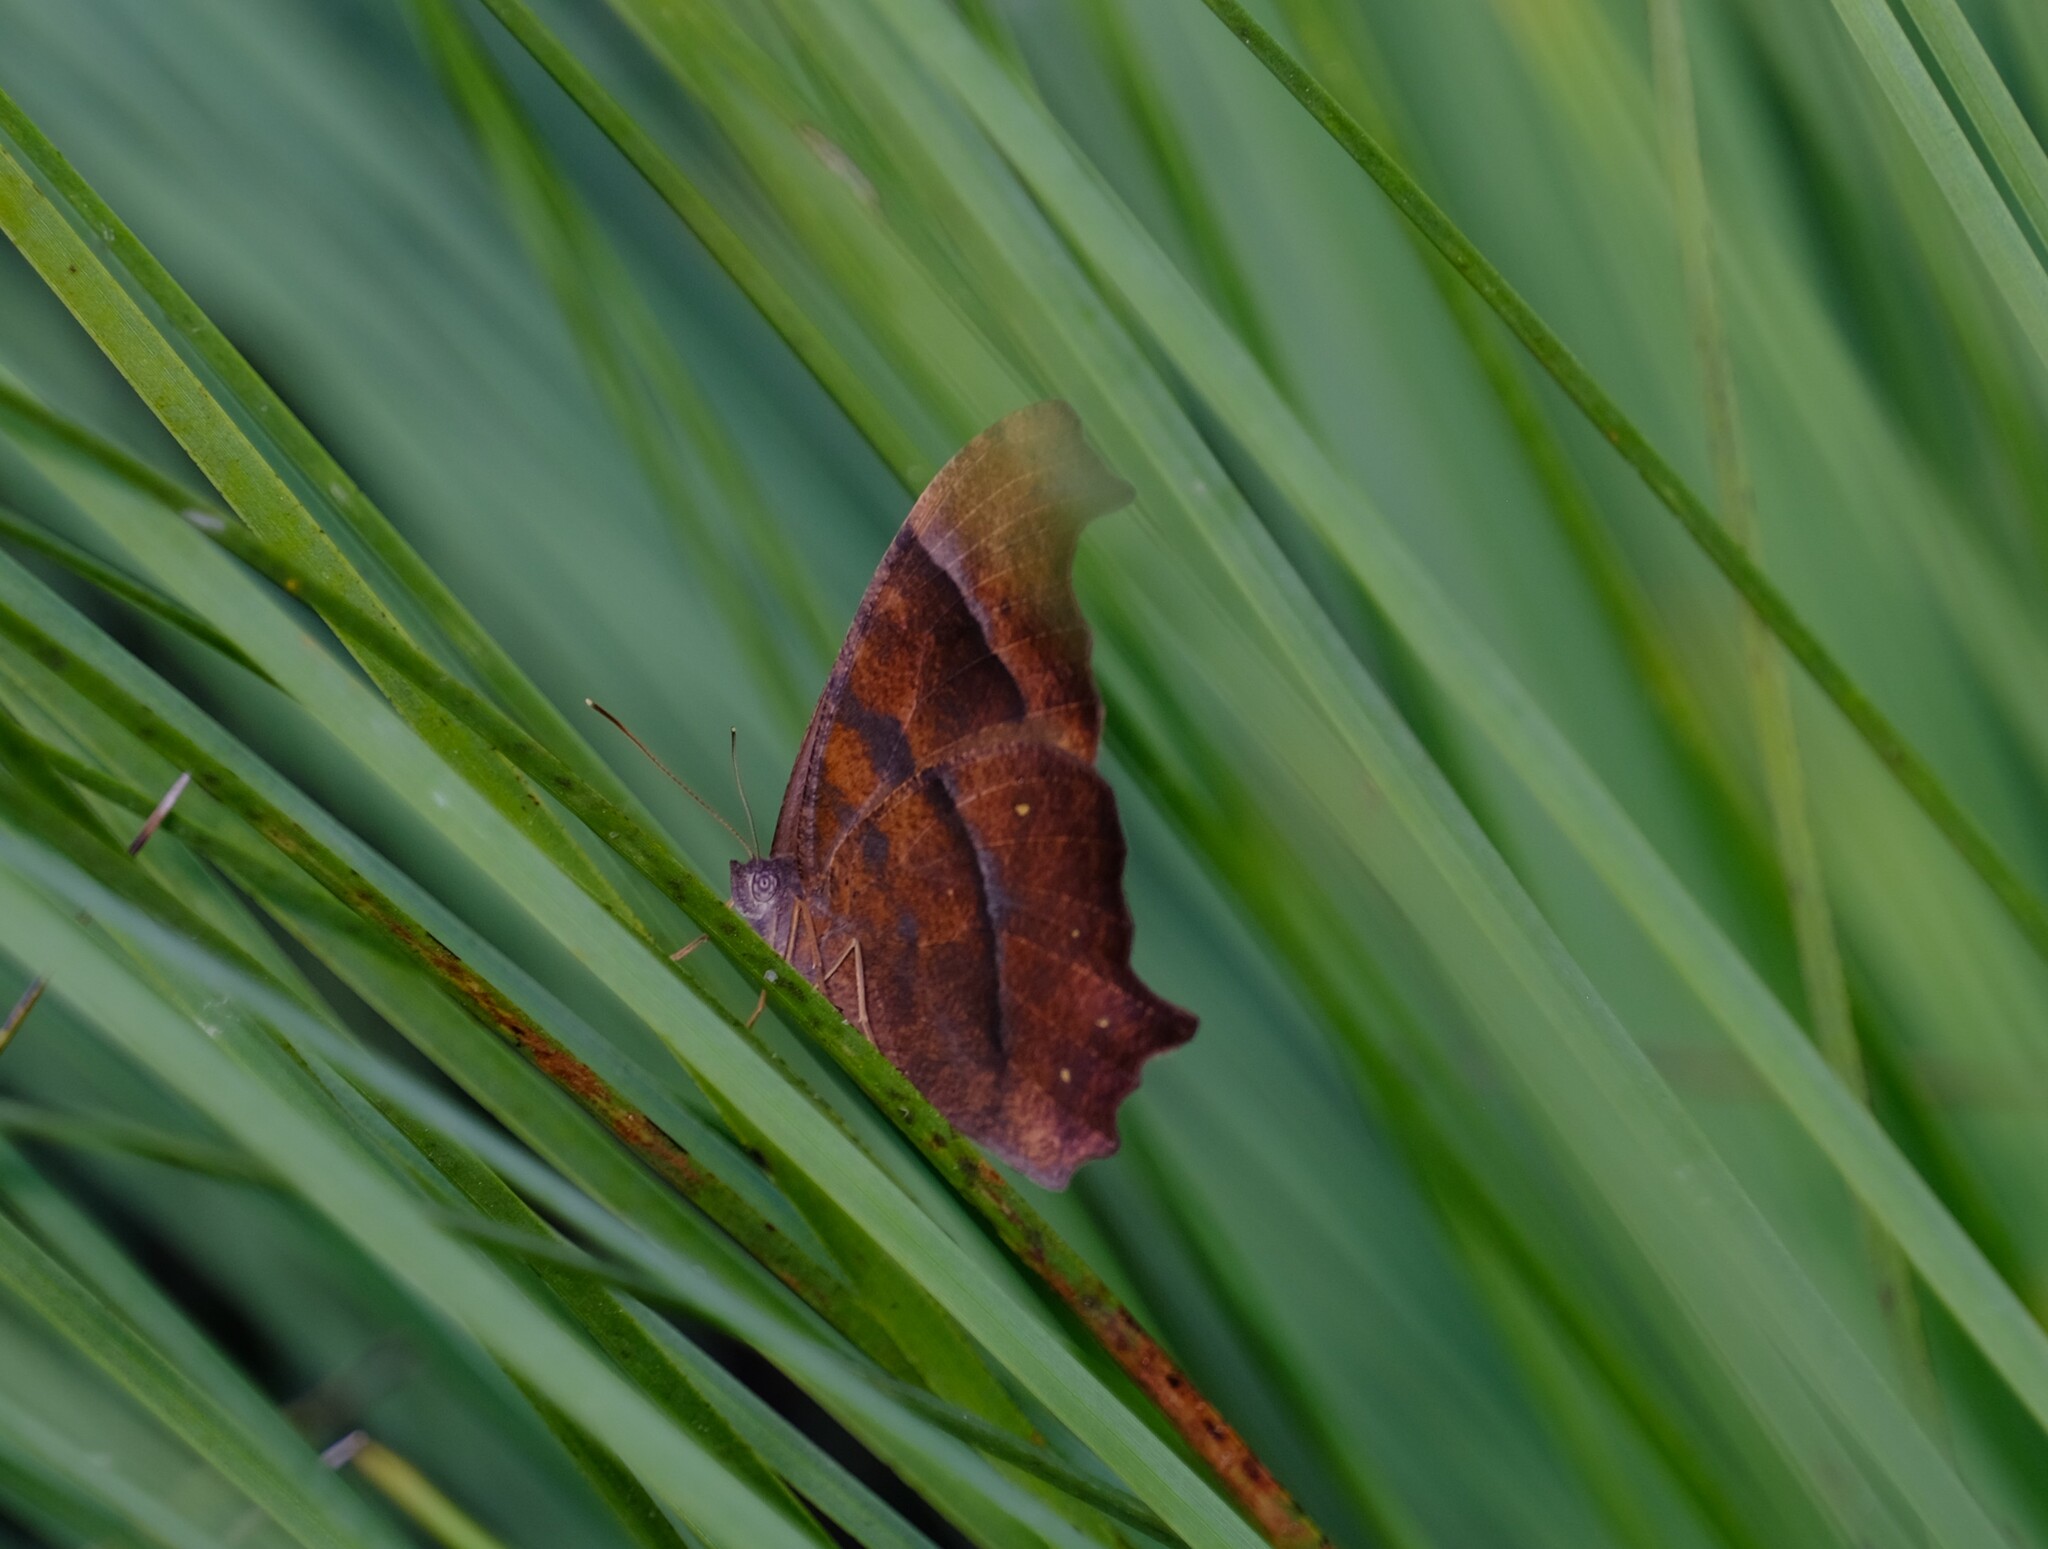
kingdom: Animalia
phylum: Arthropoda
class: Insecta
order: Lepidoptera
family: Nymphalidae
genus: Melanitis
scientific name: Melanitis leda
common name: Twilight brown
